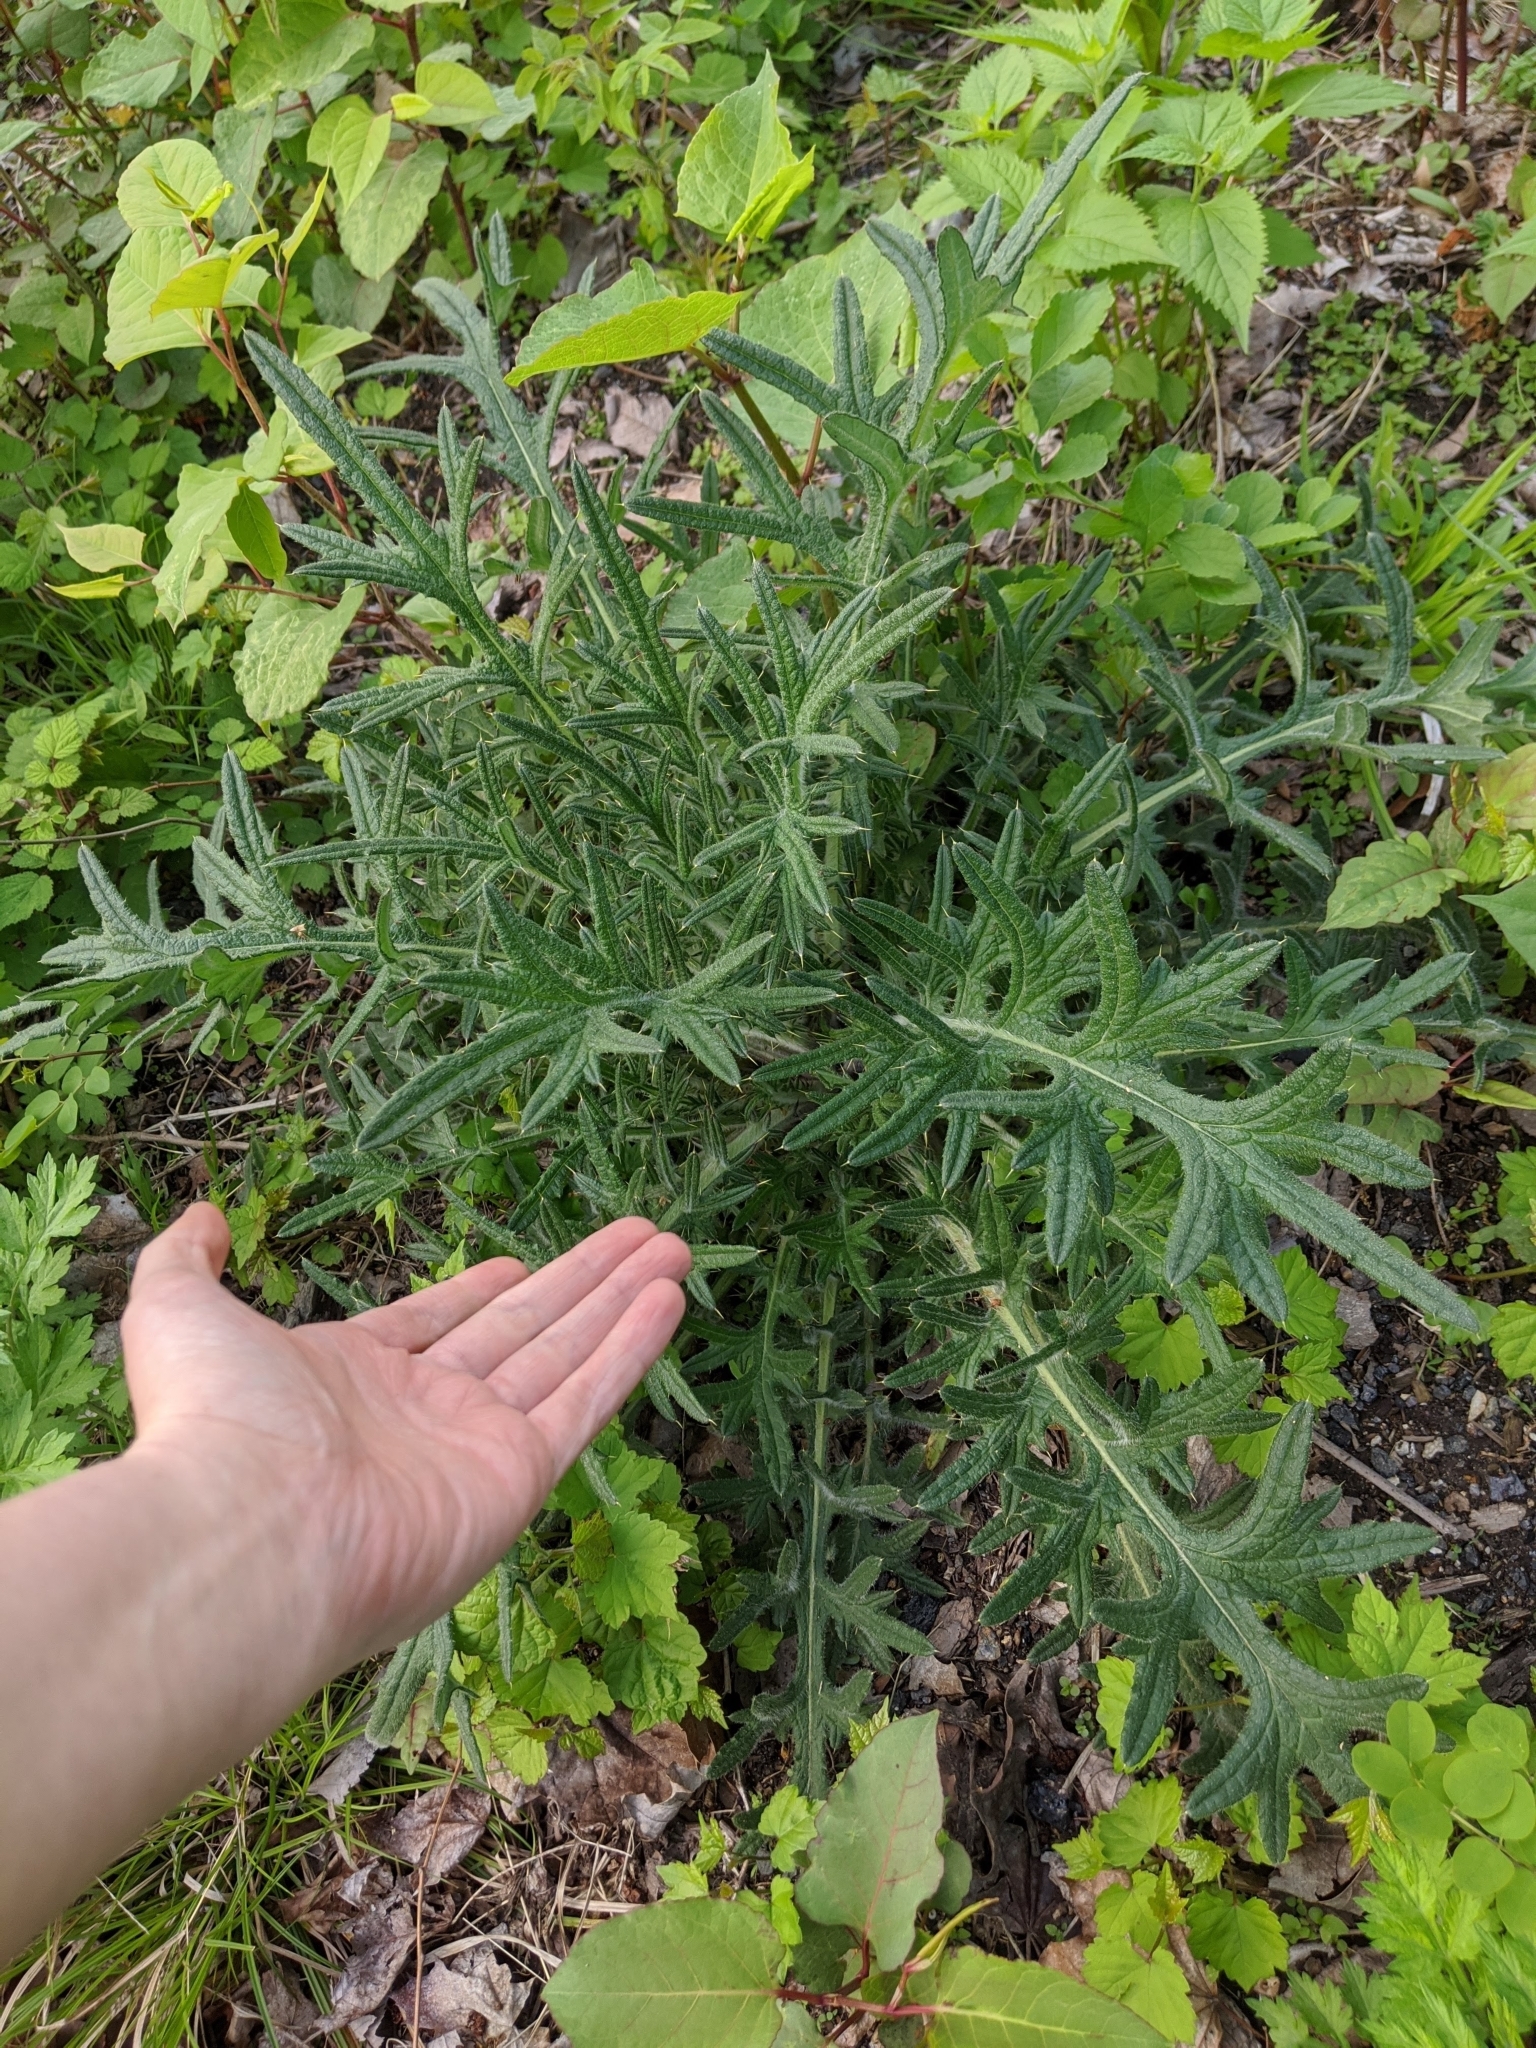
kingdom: Plantae
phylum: Tracheophyta
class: Magnoliopsida
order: Asterales
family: Asteraceae
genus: Cirsium
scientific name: Cirsium vulgare
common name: Bull thistle
